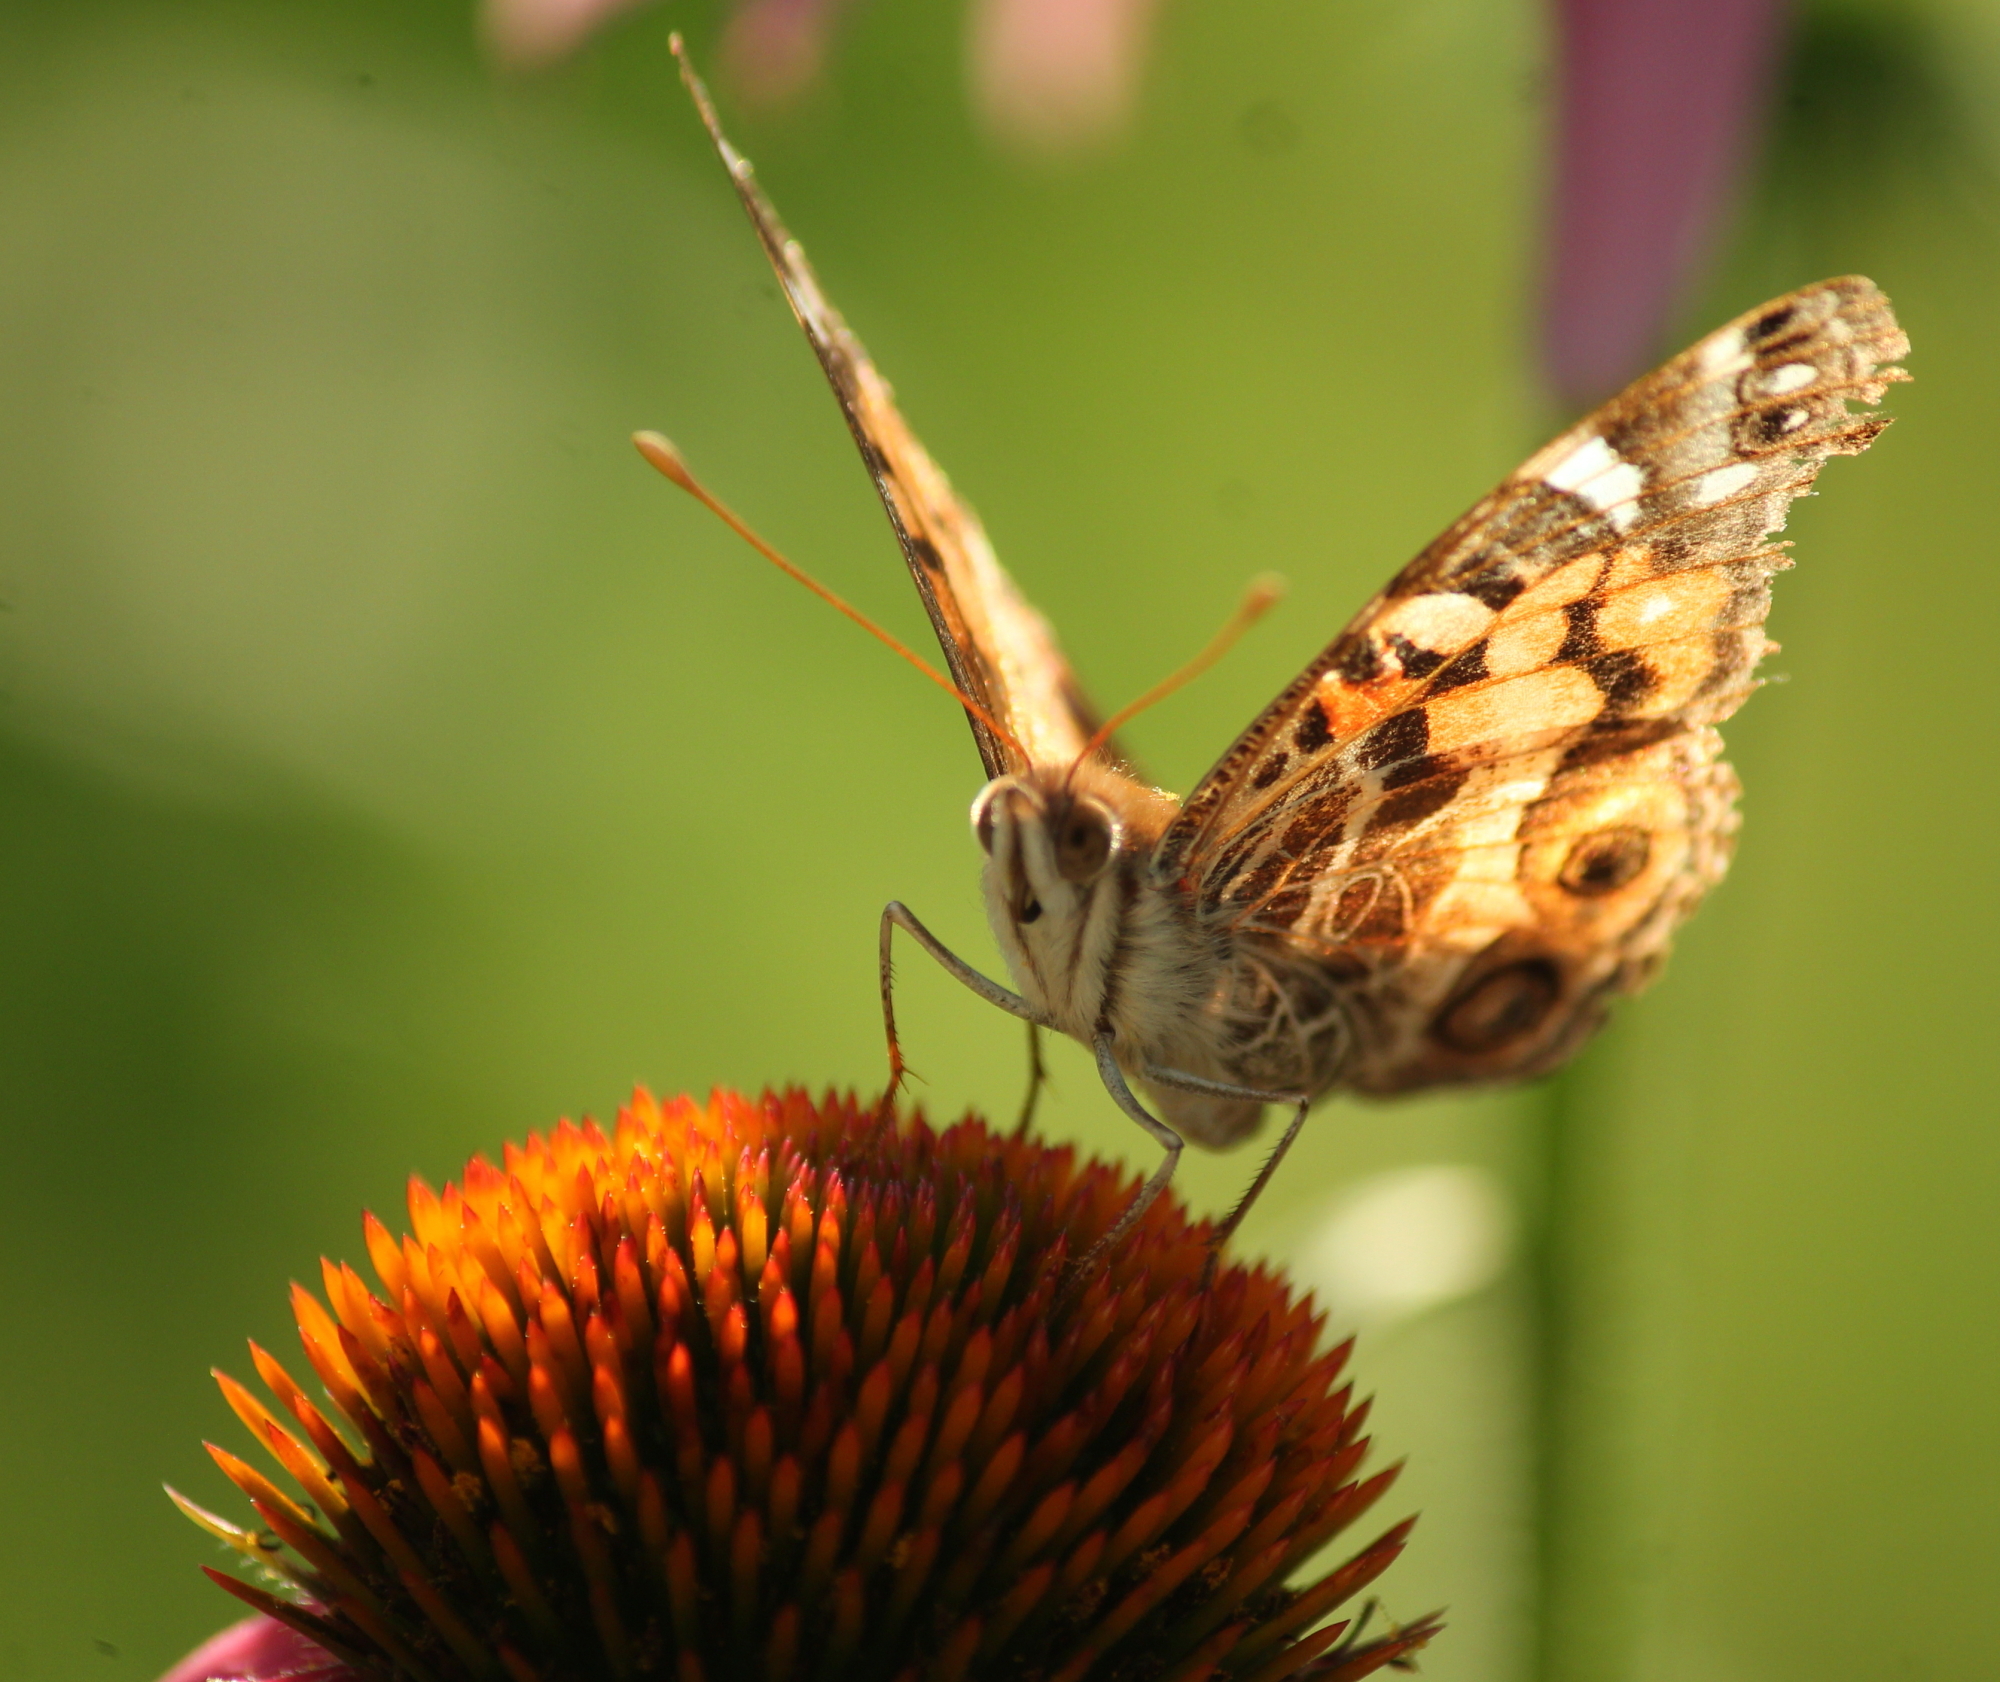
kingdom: Animalia
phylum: Arthropoda
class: Insecta
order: Lepidoptera
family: Nymphalidae
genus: Vanessa
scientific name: Vanessa virginiensis
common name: American lady
